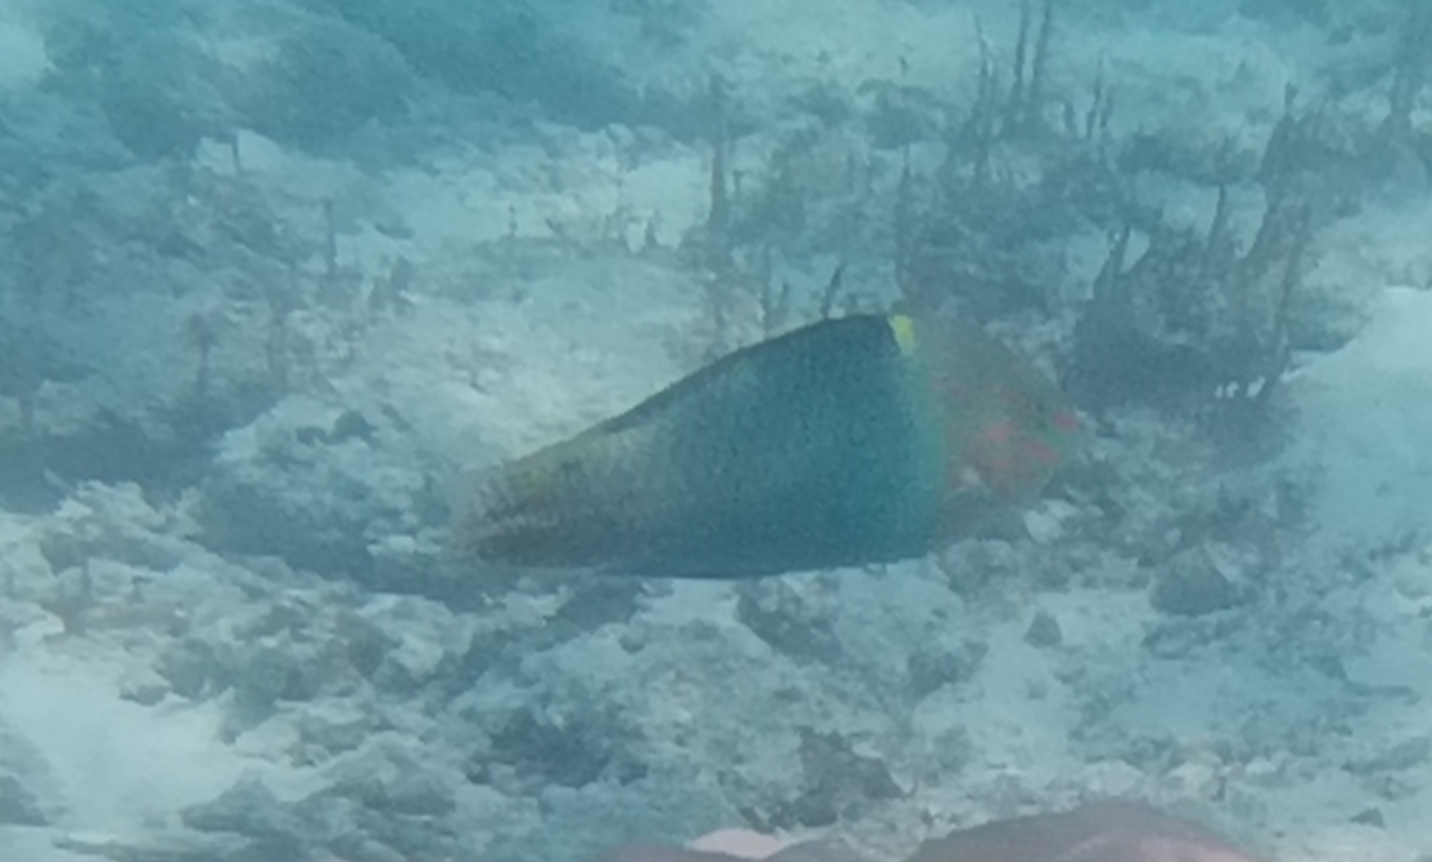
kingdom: Animalia
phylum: Chordata
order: Perciformes
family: Labridae
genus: Halichoeres
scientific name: Halichoeres hortulanus
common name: Checkerboard wrasse
